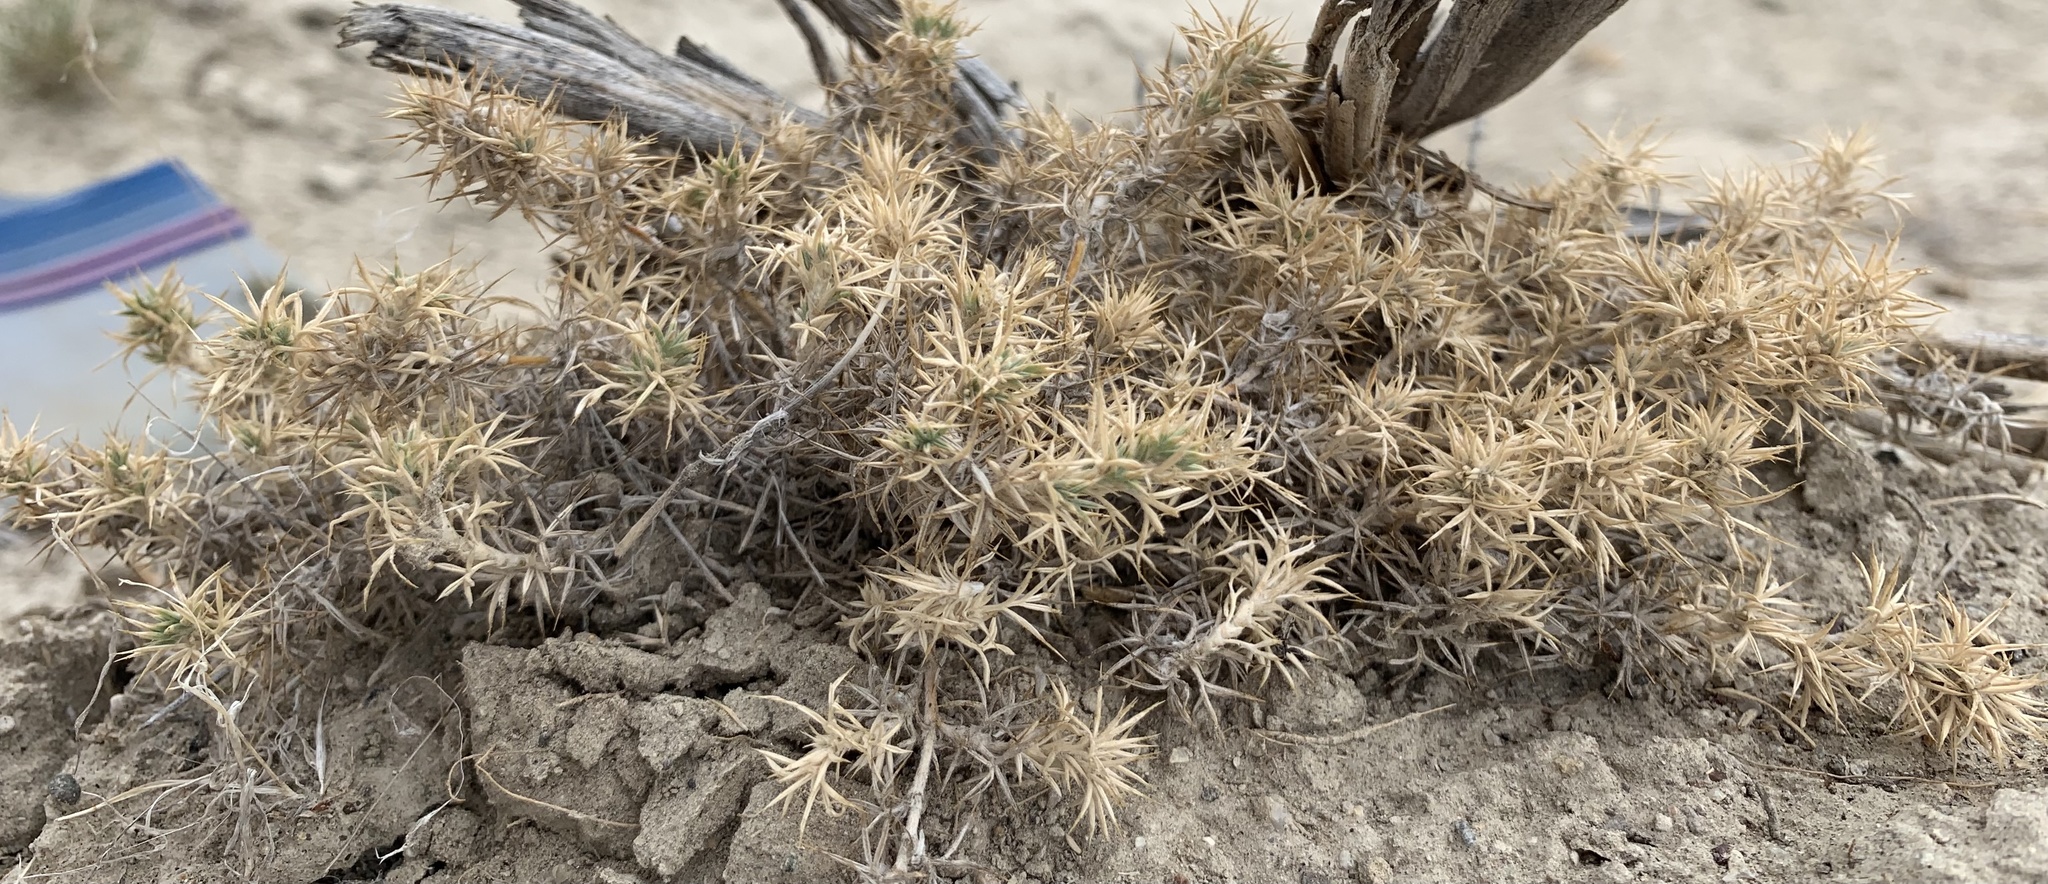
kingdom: Plantae
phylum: Tracheophyta
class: Magnoliopsida
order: Fabales
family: Fabaceae
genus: Astragalus
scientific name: Astragalus kentrophyta
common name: Prickly milk-vetch
